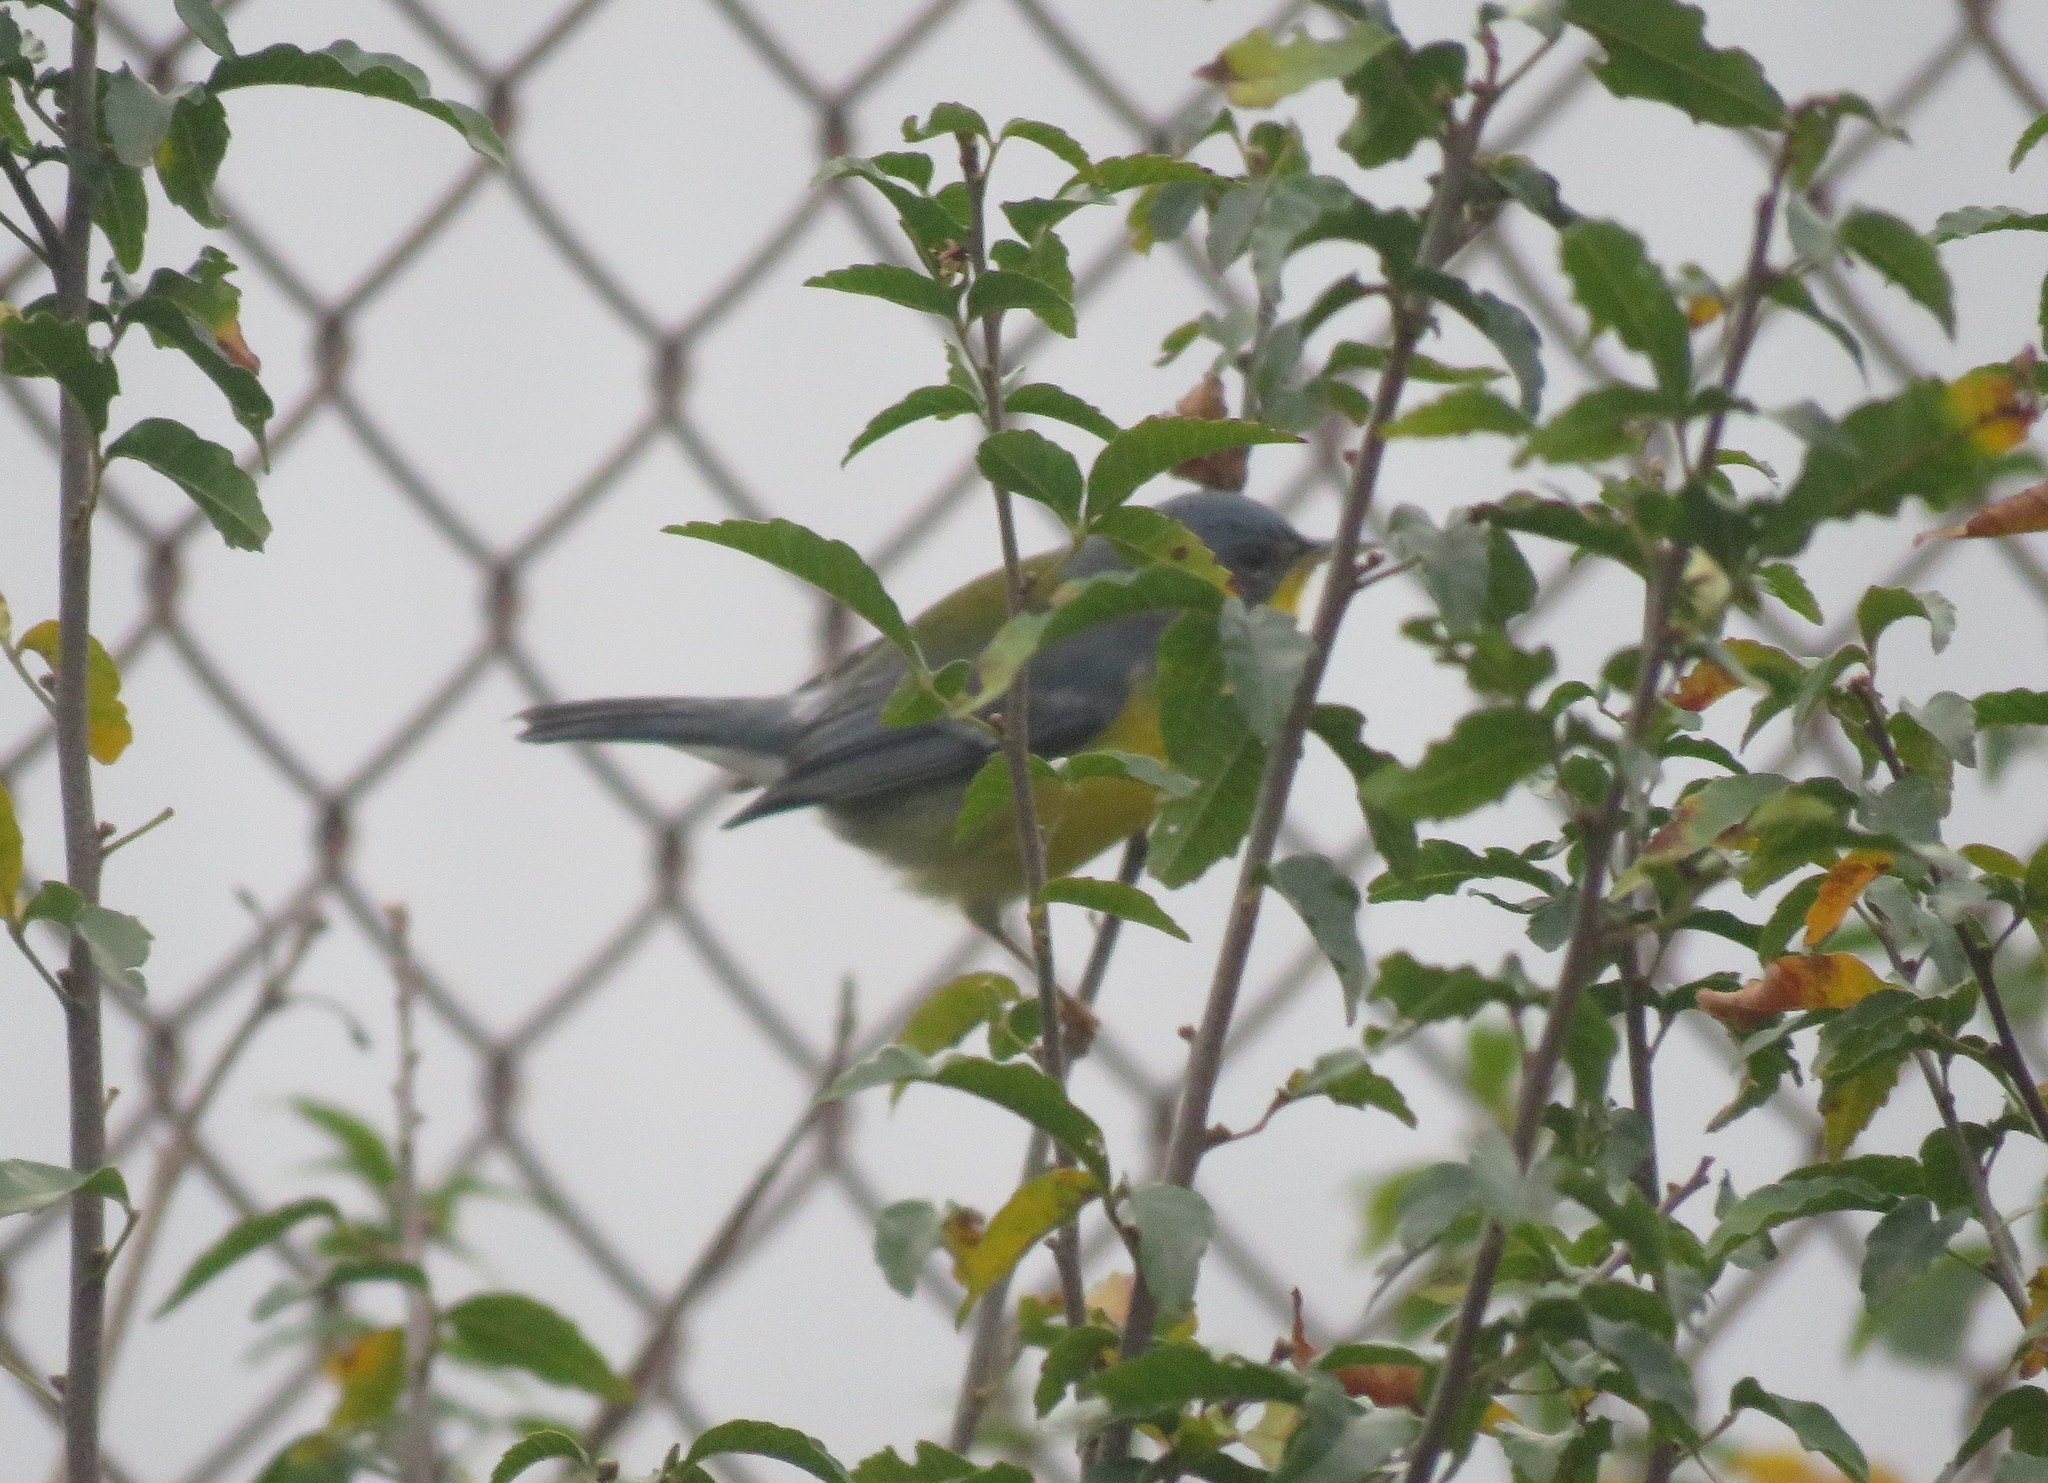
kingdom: Animalia
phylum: Chordata
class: Aves
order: Passeriformes
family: Parulidae
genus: Setophaga
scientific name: Setophaga pitiayumi
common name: Tropical parula
